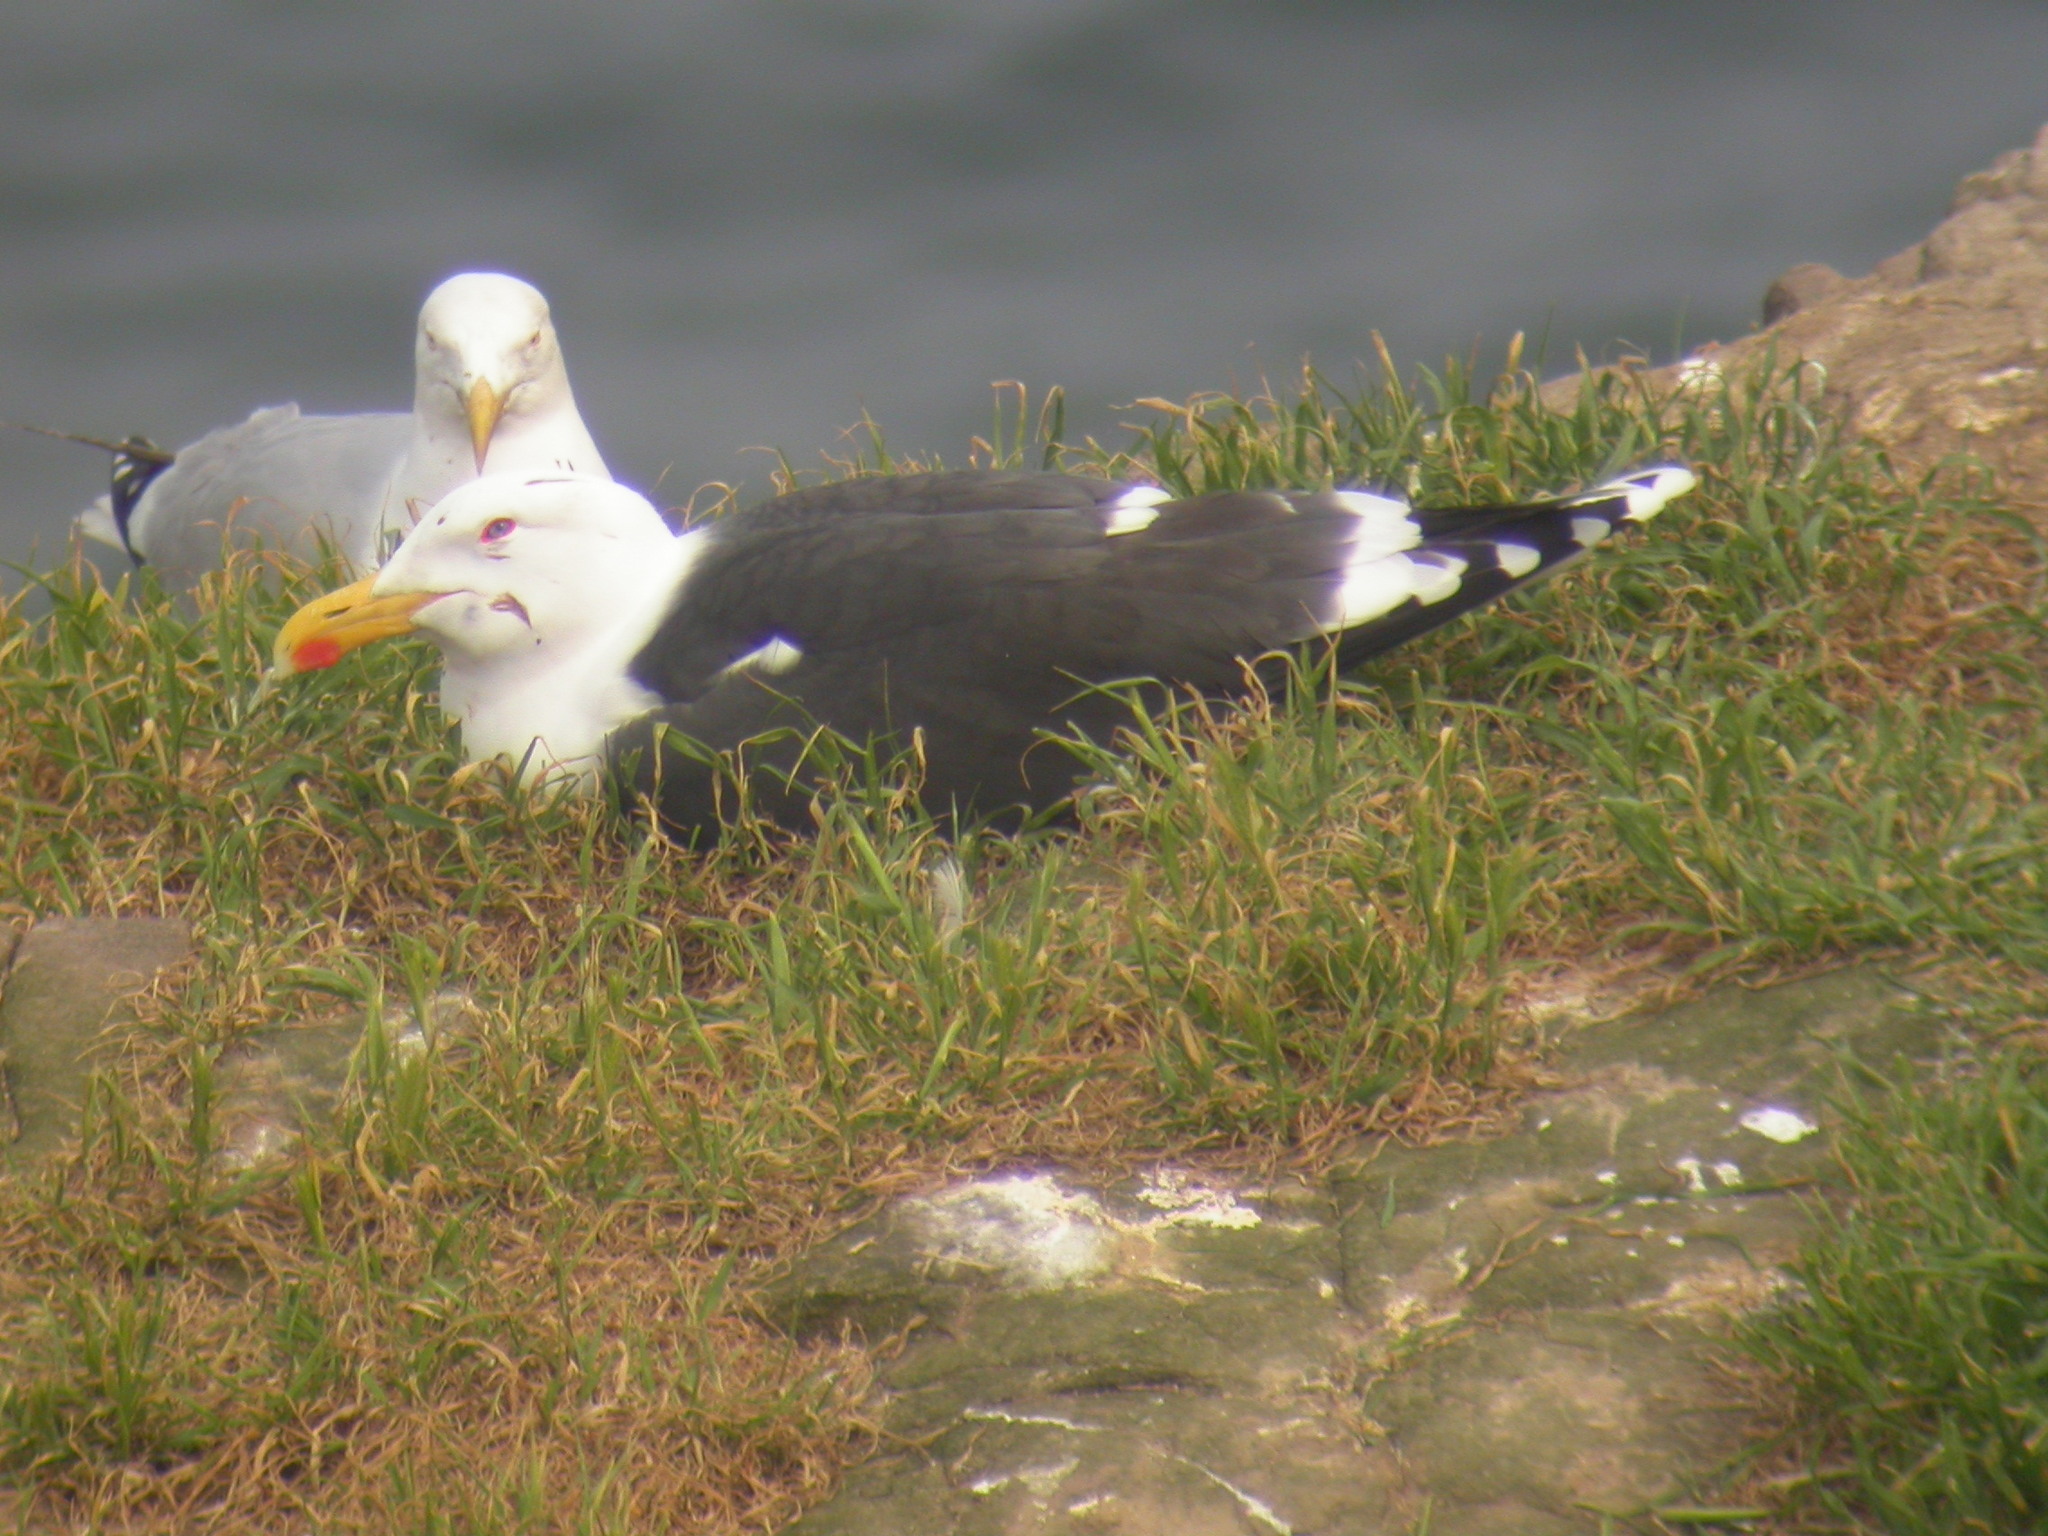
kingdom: Animalia
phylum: Chordata
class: Aves
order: Charadriiformes
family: Laridae
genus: Larus
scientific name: Larus marinus
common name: Great black-backed gull
